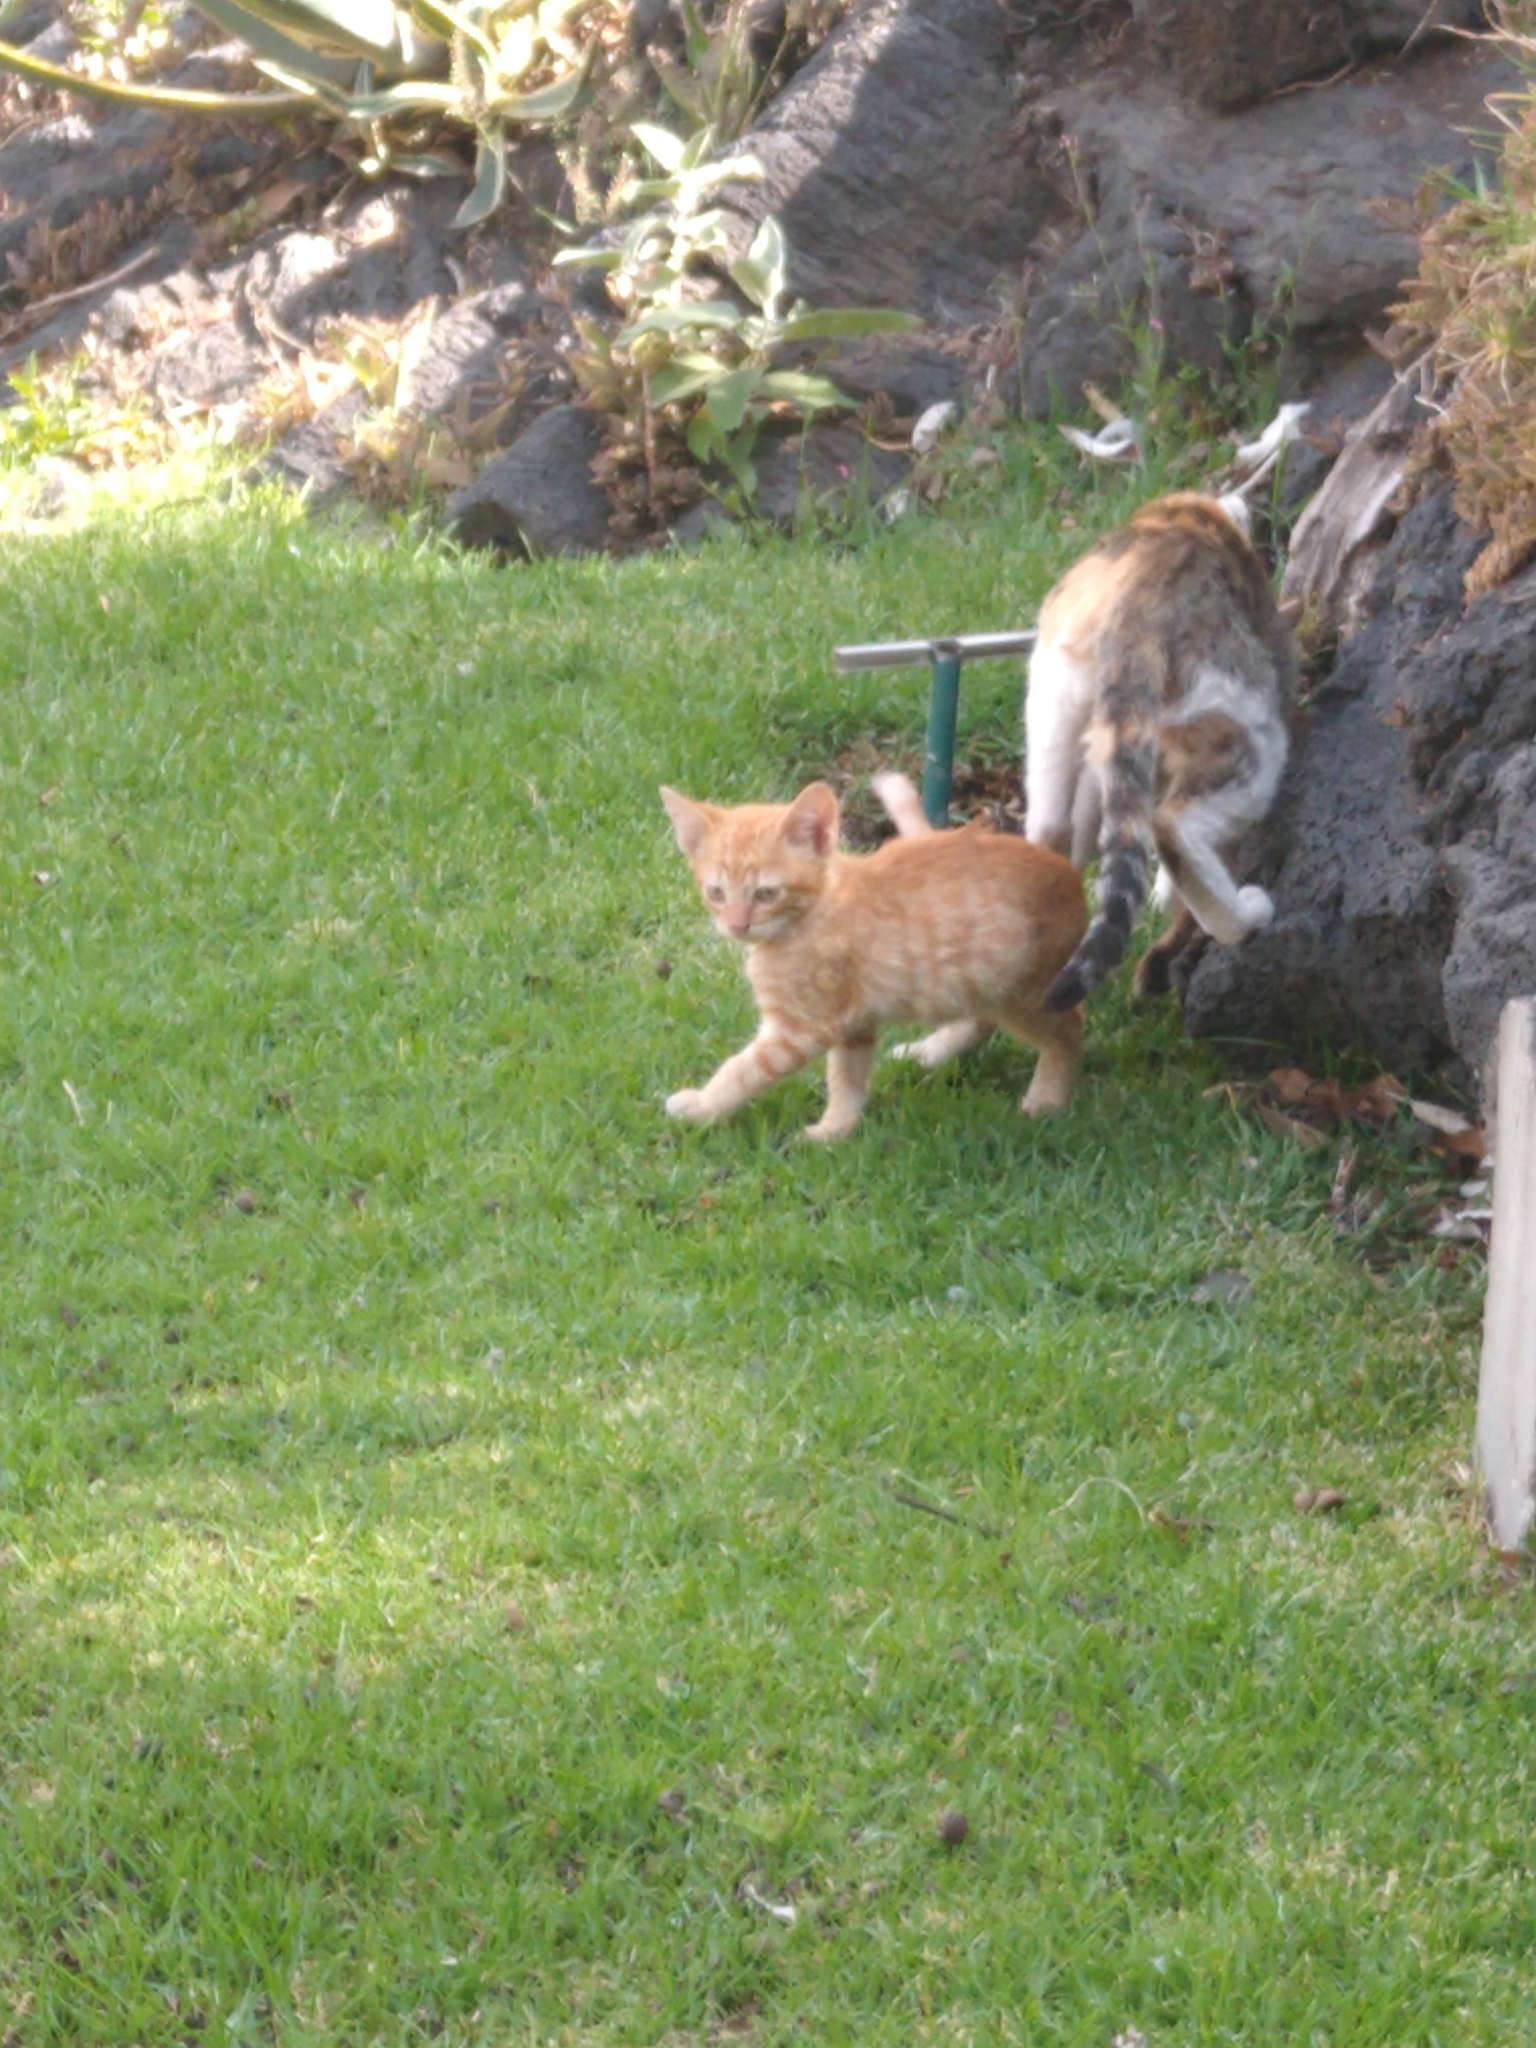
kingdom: Animalia
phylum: Chordata
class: Mammalia
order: Carnivora
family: Felidae
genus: Felis
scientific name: Felis catus
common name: Domestic cat
